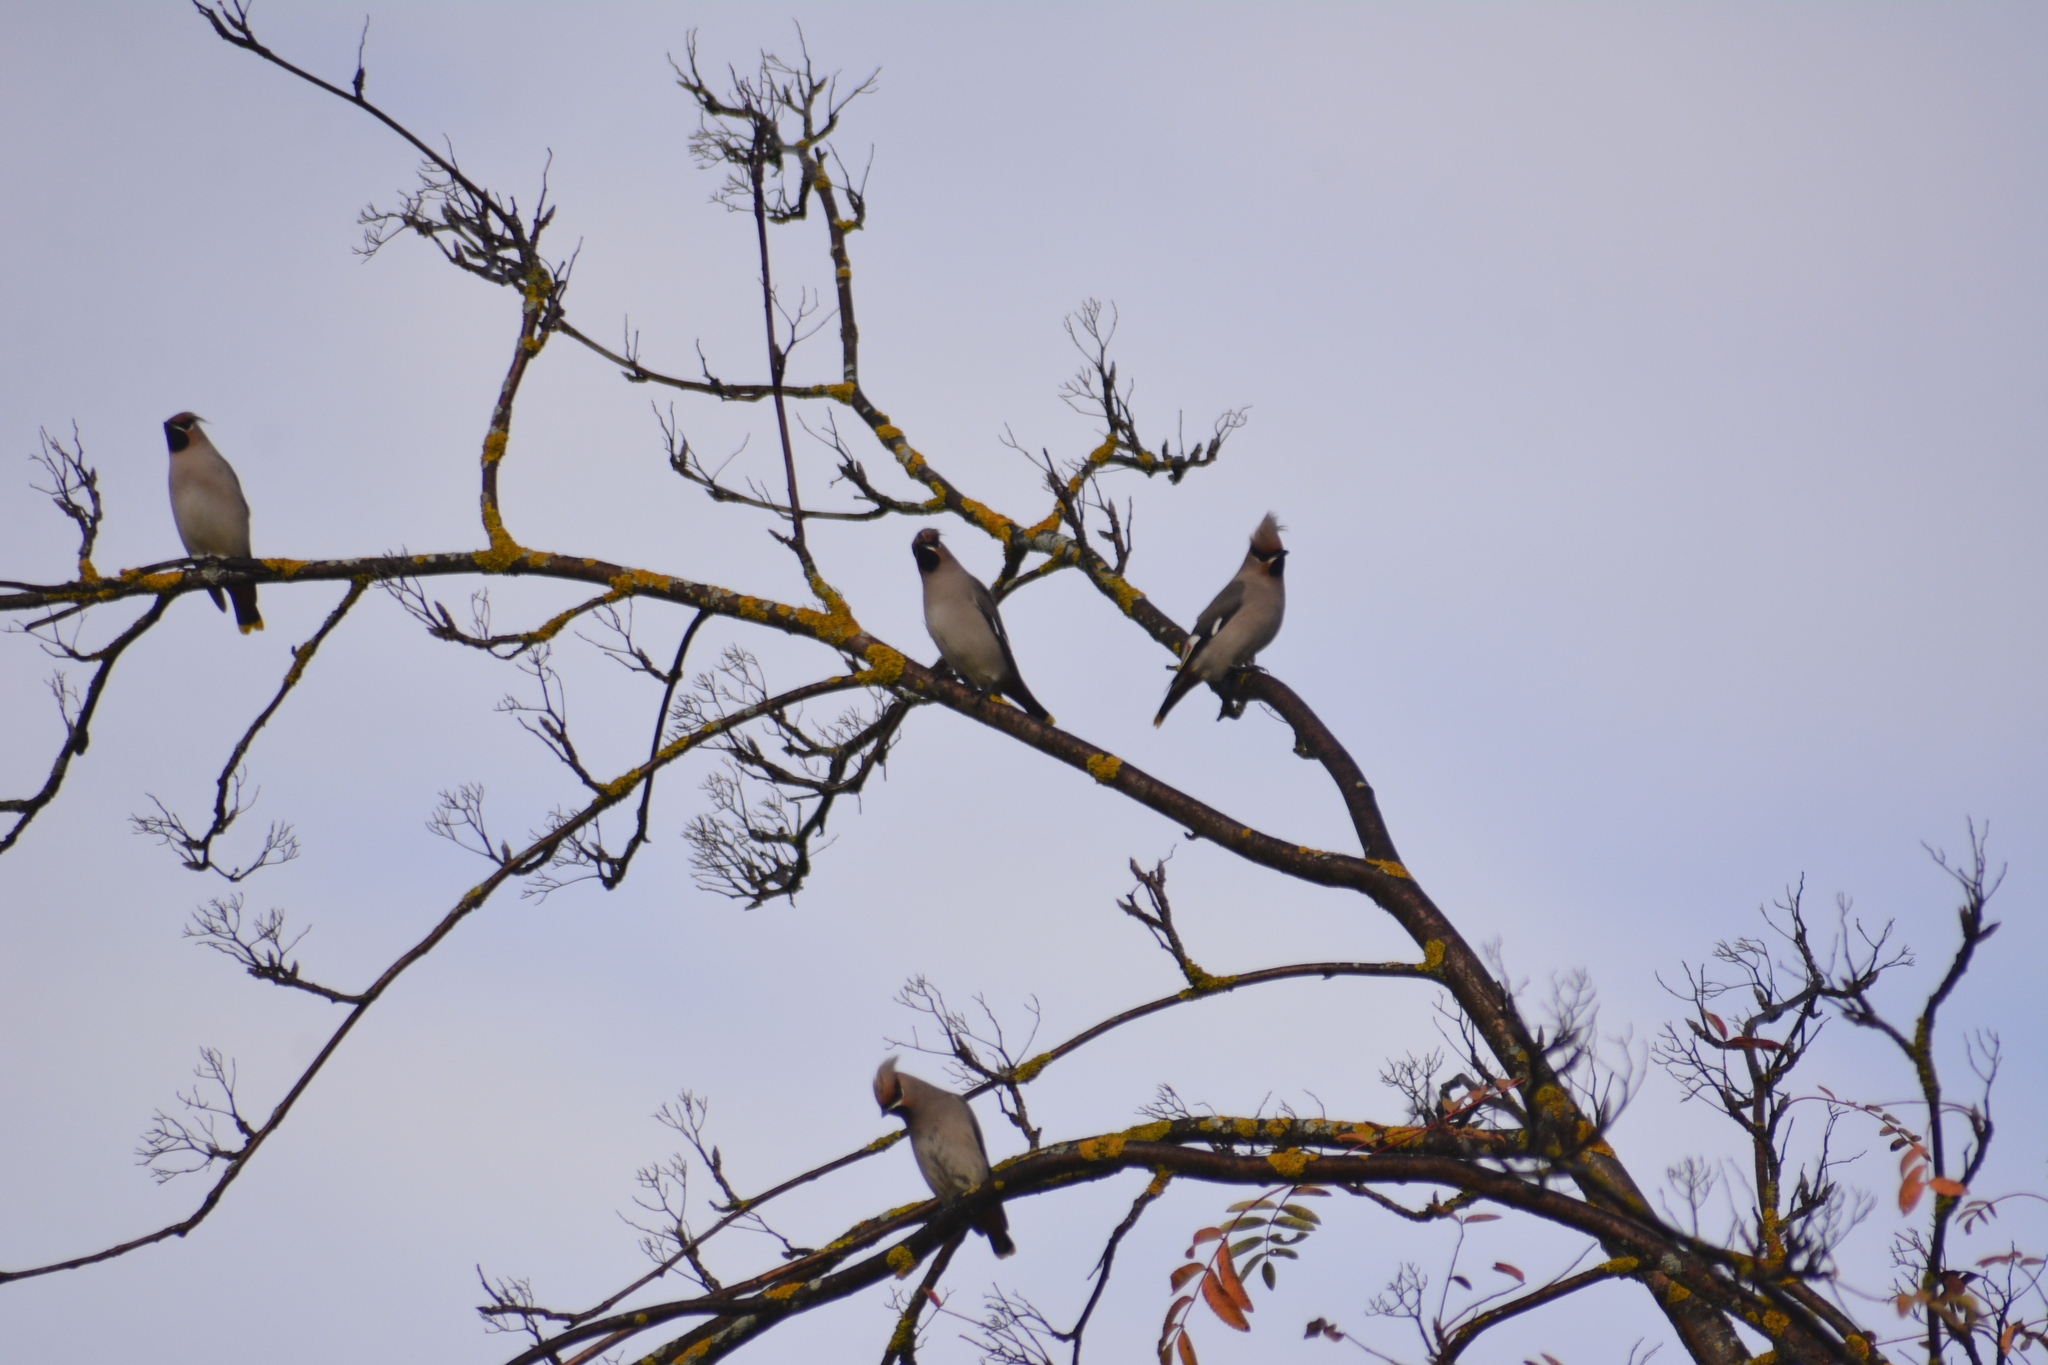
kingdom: Animalia
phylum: Chordata
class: Aves
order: Passeriformes
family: Bombycillidae
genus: Bombycilla
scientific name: Bombycilla garrulus
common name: Bohemian waxwing
